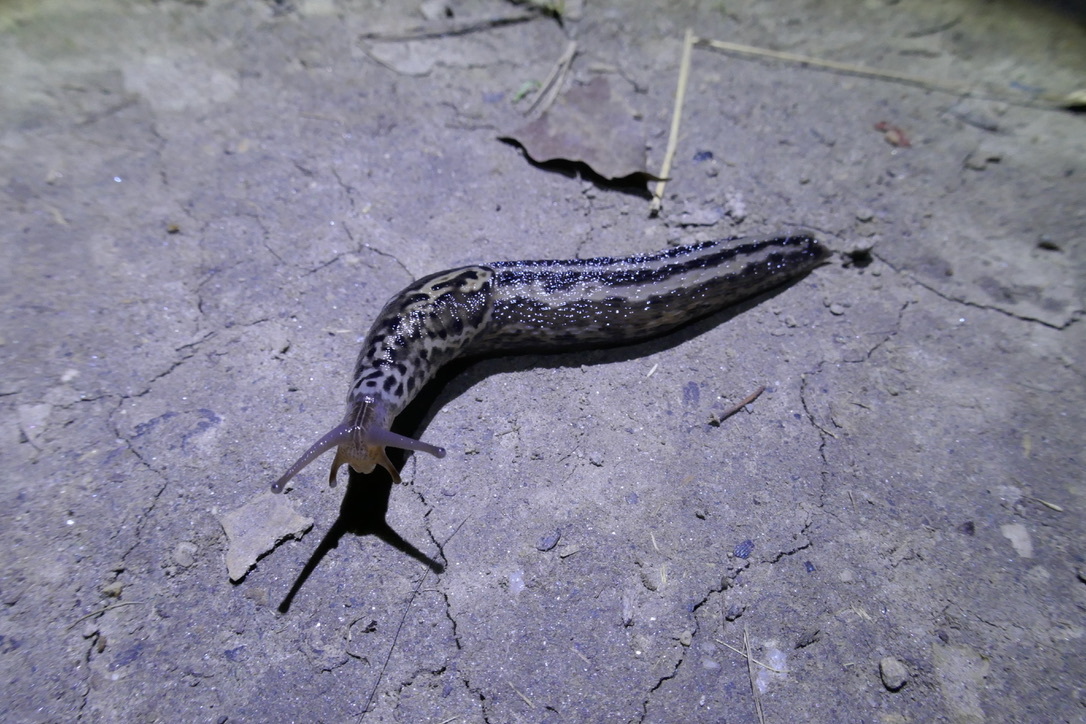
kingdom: Animalia
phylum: Mollusca
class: Gastropoda
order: Stylommatophora
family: Limacidae
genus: Limax
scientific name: Limax maximus
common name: Great grey slug
